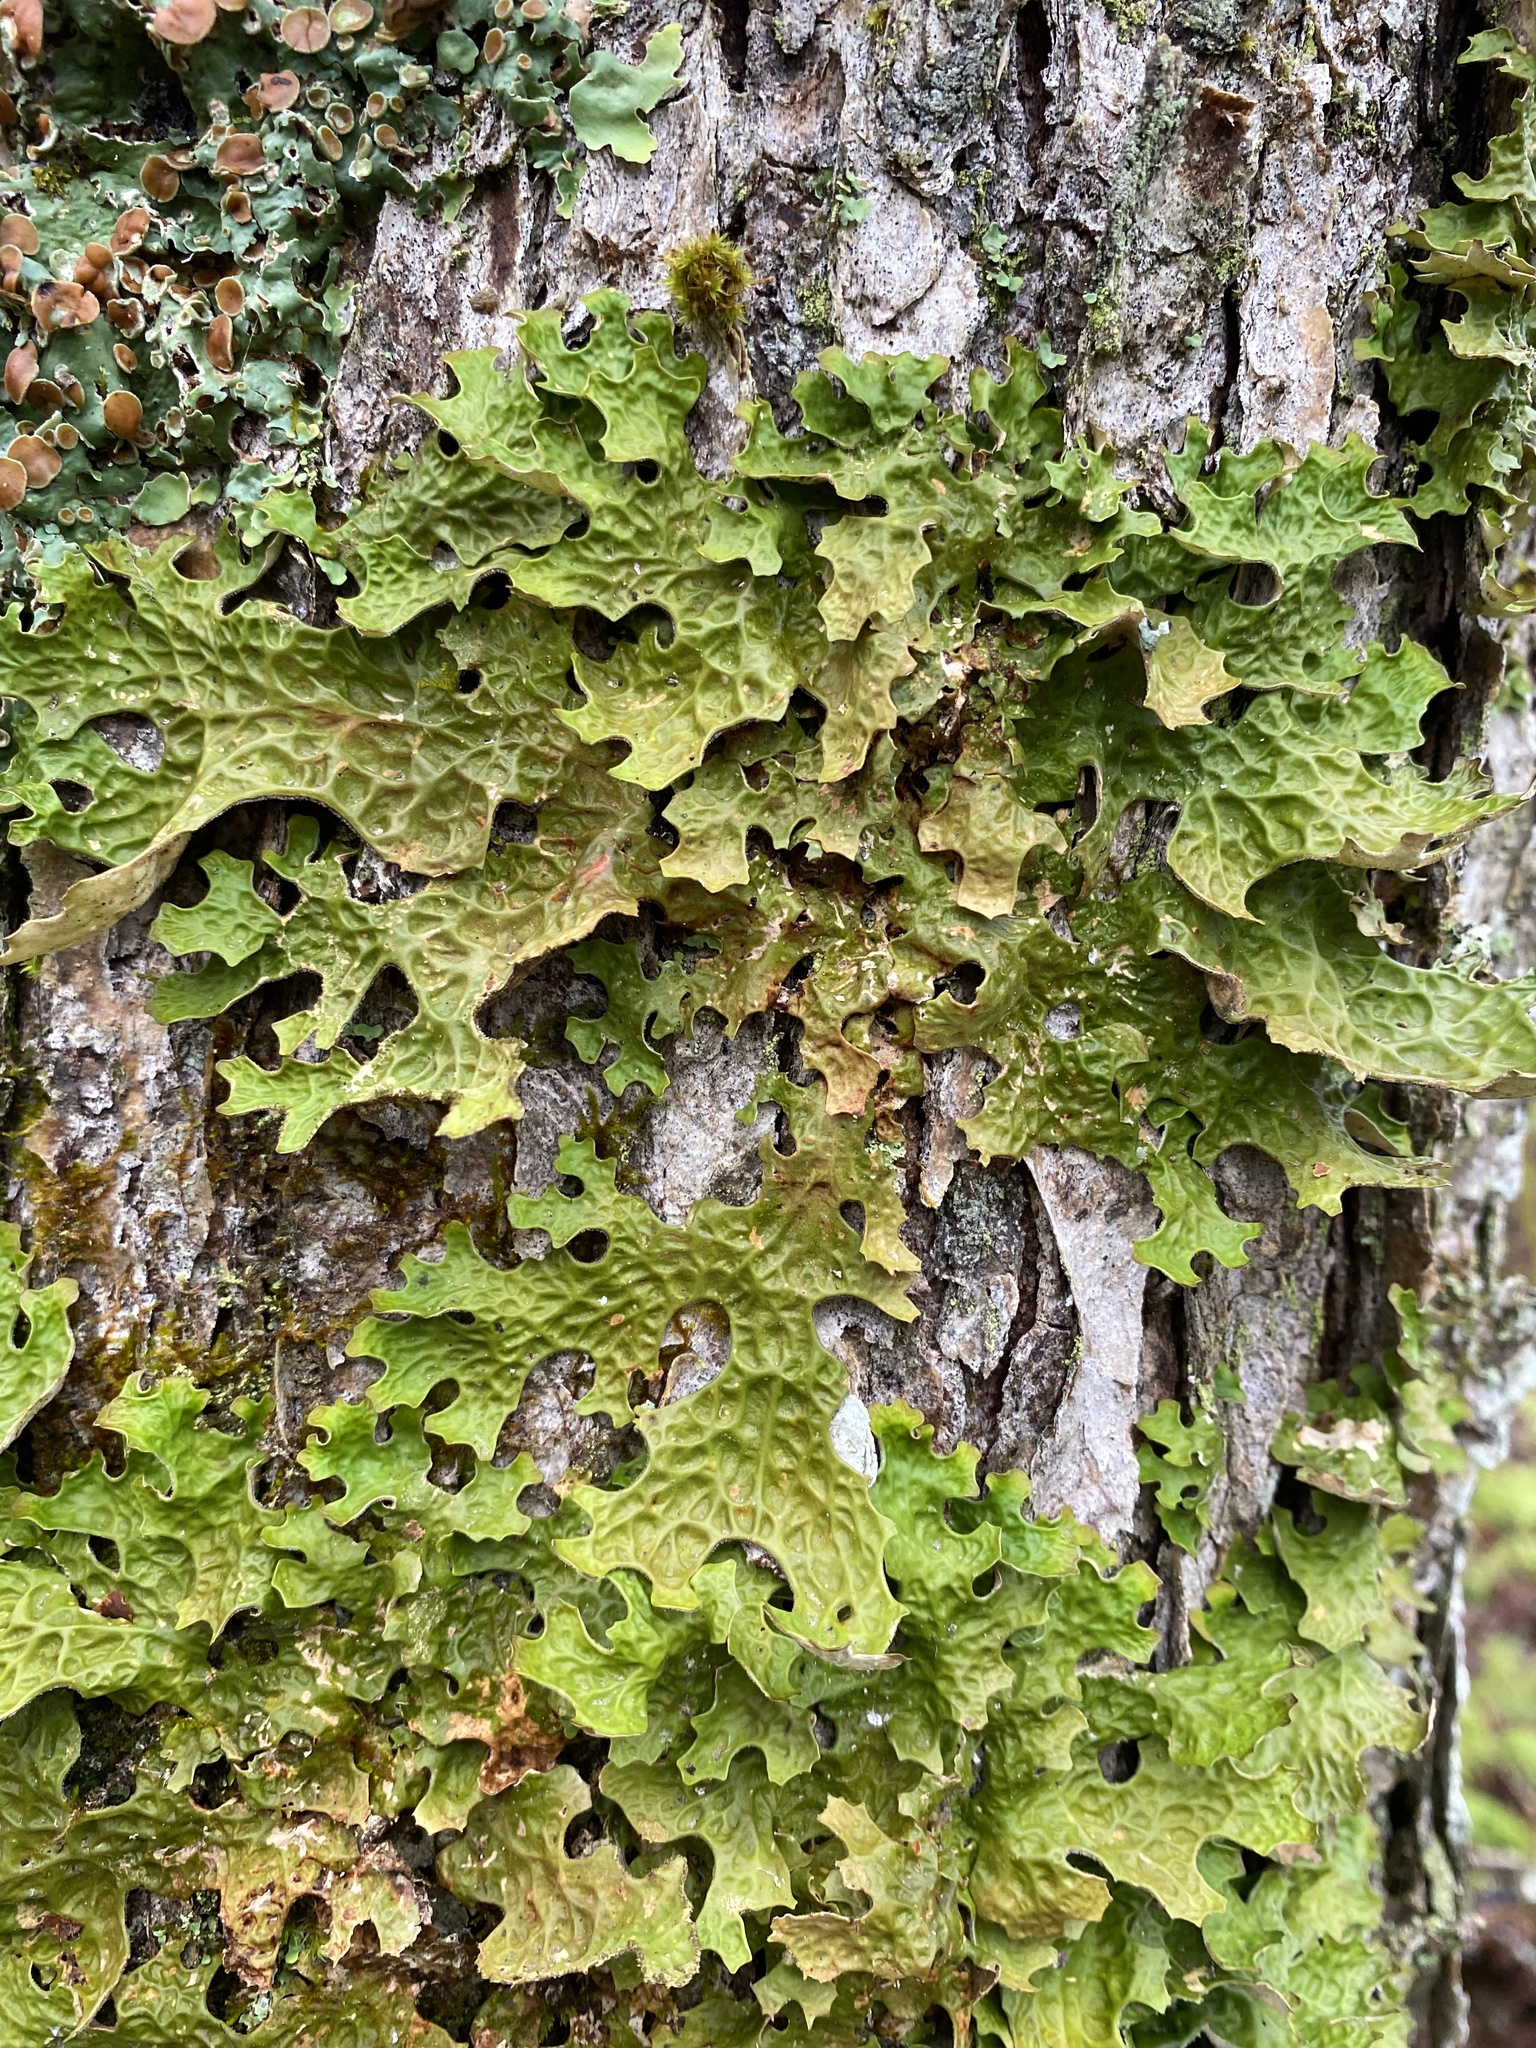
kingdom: Fungi
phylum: Ascomycota
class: Lecanoromycetes
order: Peltigerales
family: Lobariaceae
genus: Lobaria
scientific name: Lobaria pulmonaria
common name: Lungwort
